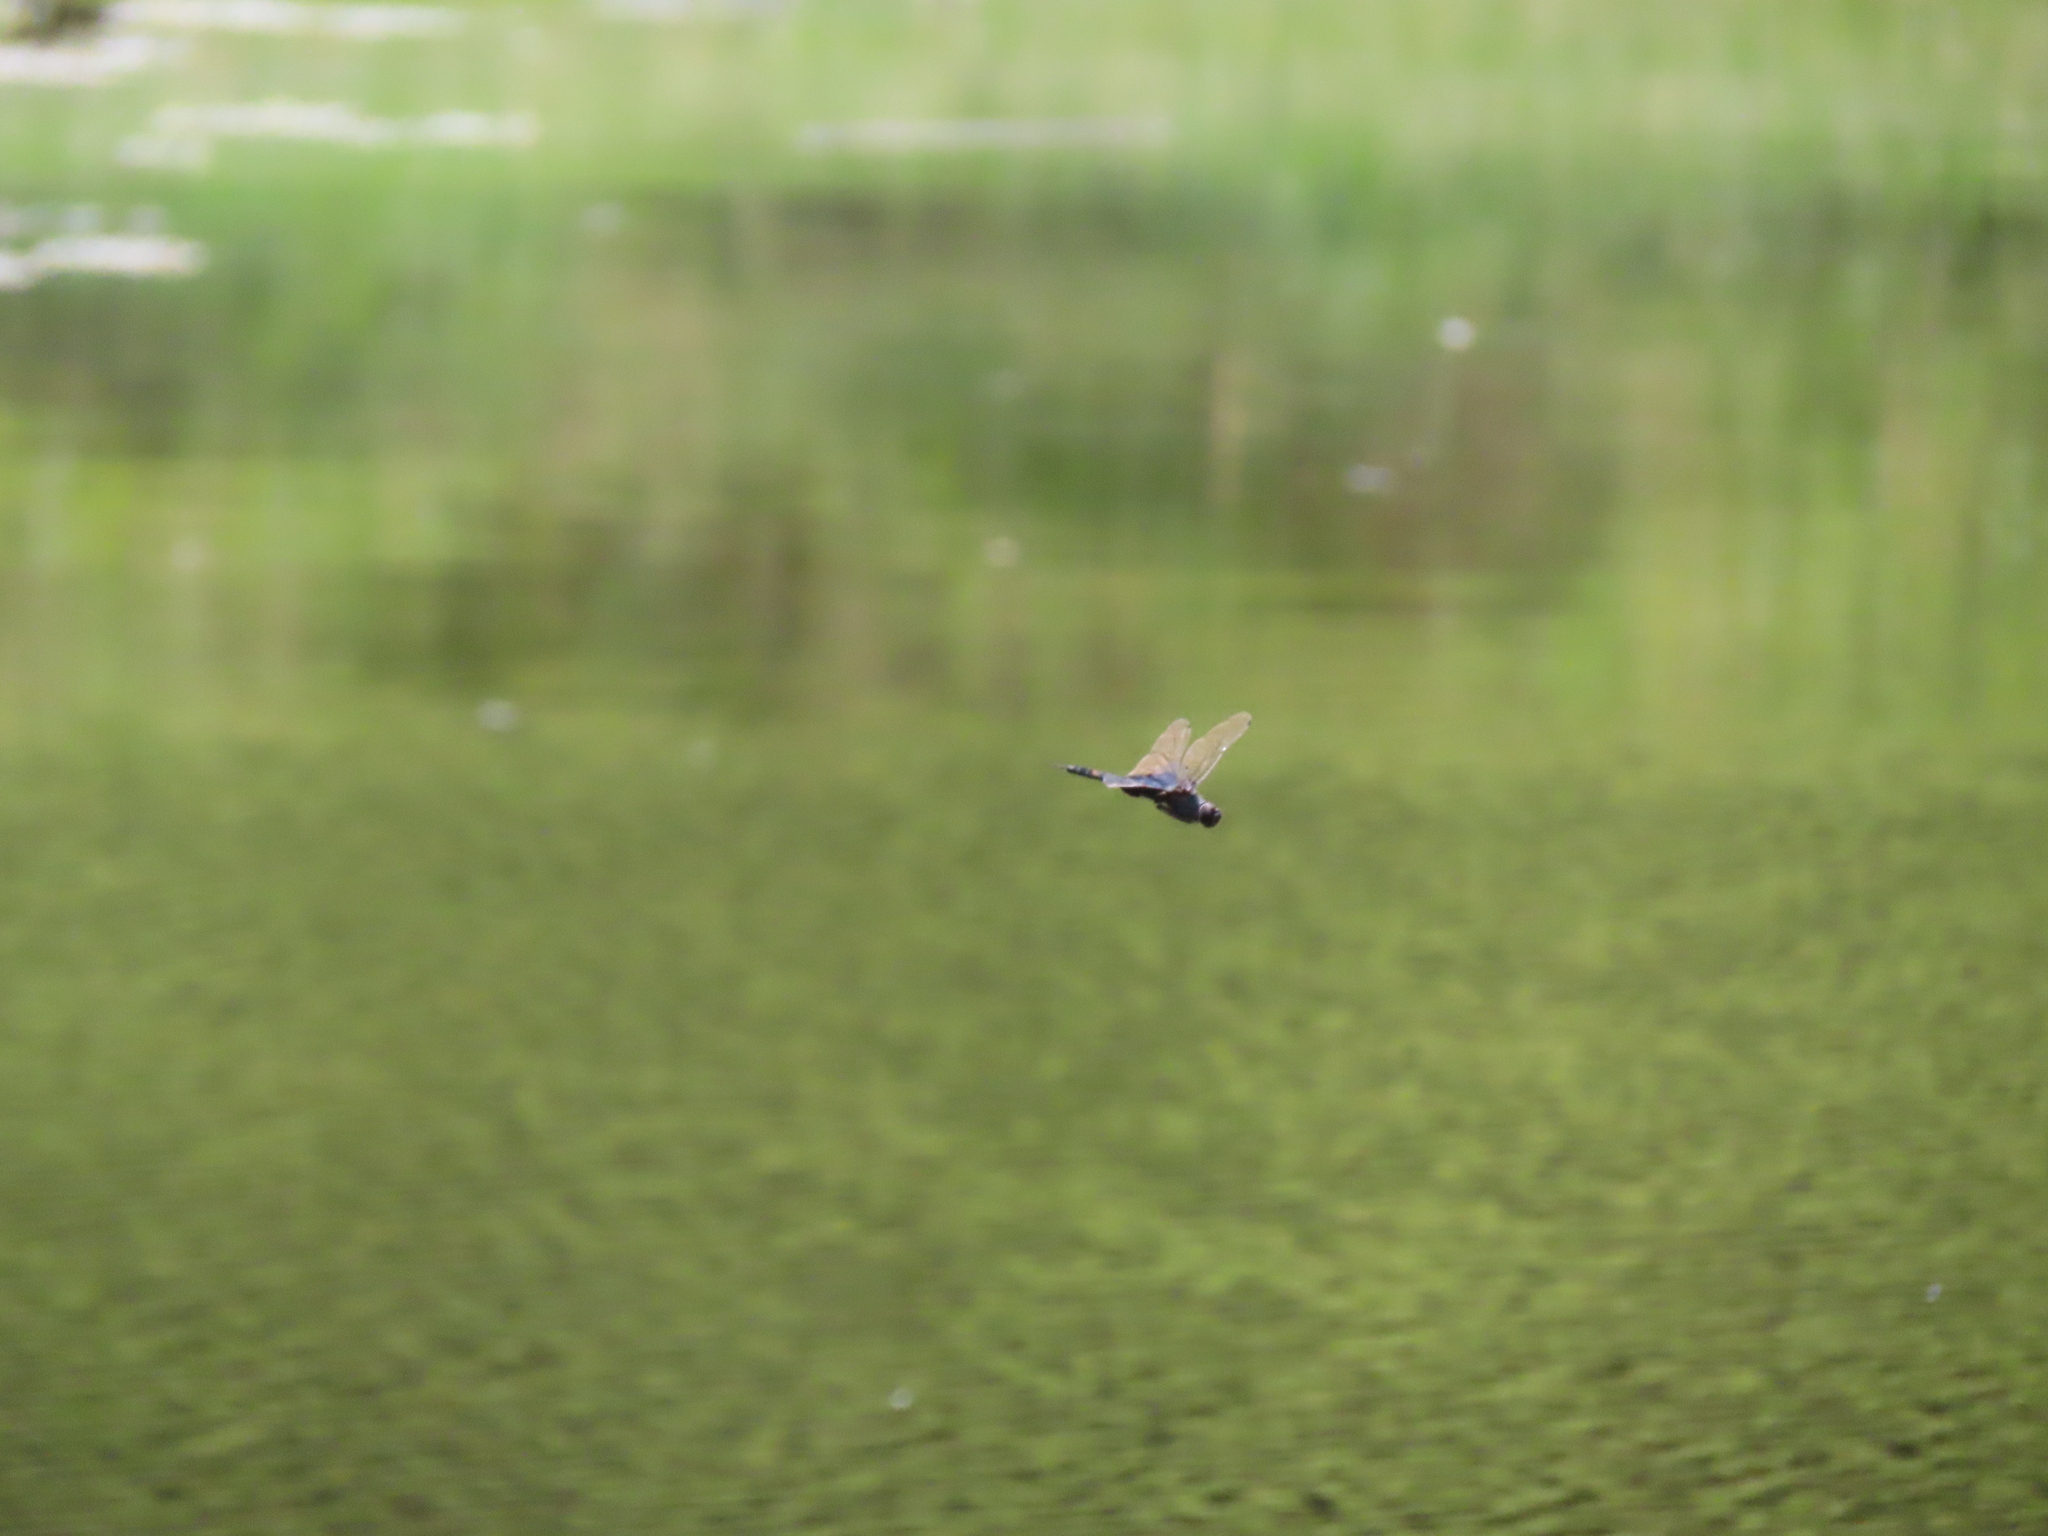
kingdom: Animalia
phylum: Arthropoda
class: Insecta
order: Odonata
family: Libellulidae
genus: Pachydiplax
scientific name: Pachydiplax longipennis
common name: Blue dasher
